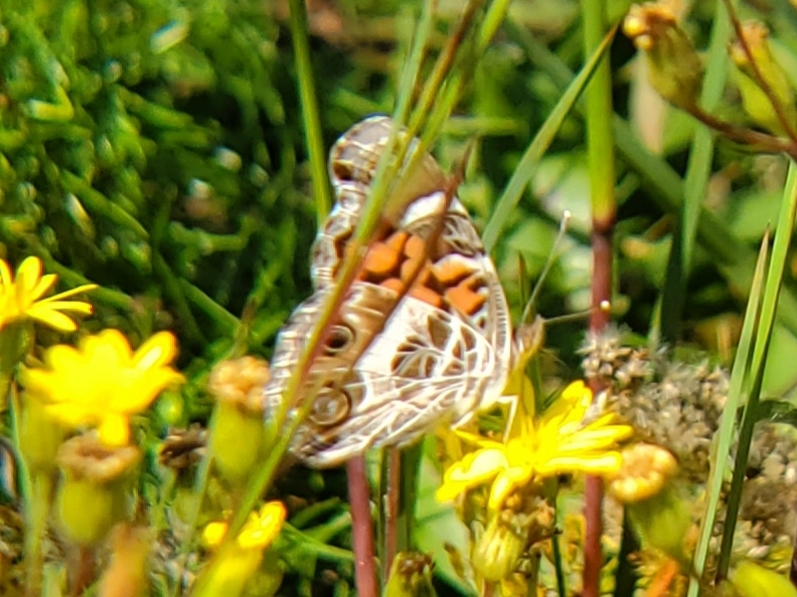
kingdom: Animalia
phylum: Arthropoda
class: Insecta
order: Lepidoptera
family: Nymphalidae
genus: Vanessa
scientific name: Vanessa virginiensis
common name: American lady
